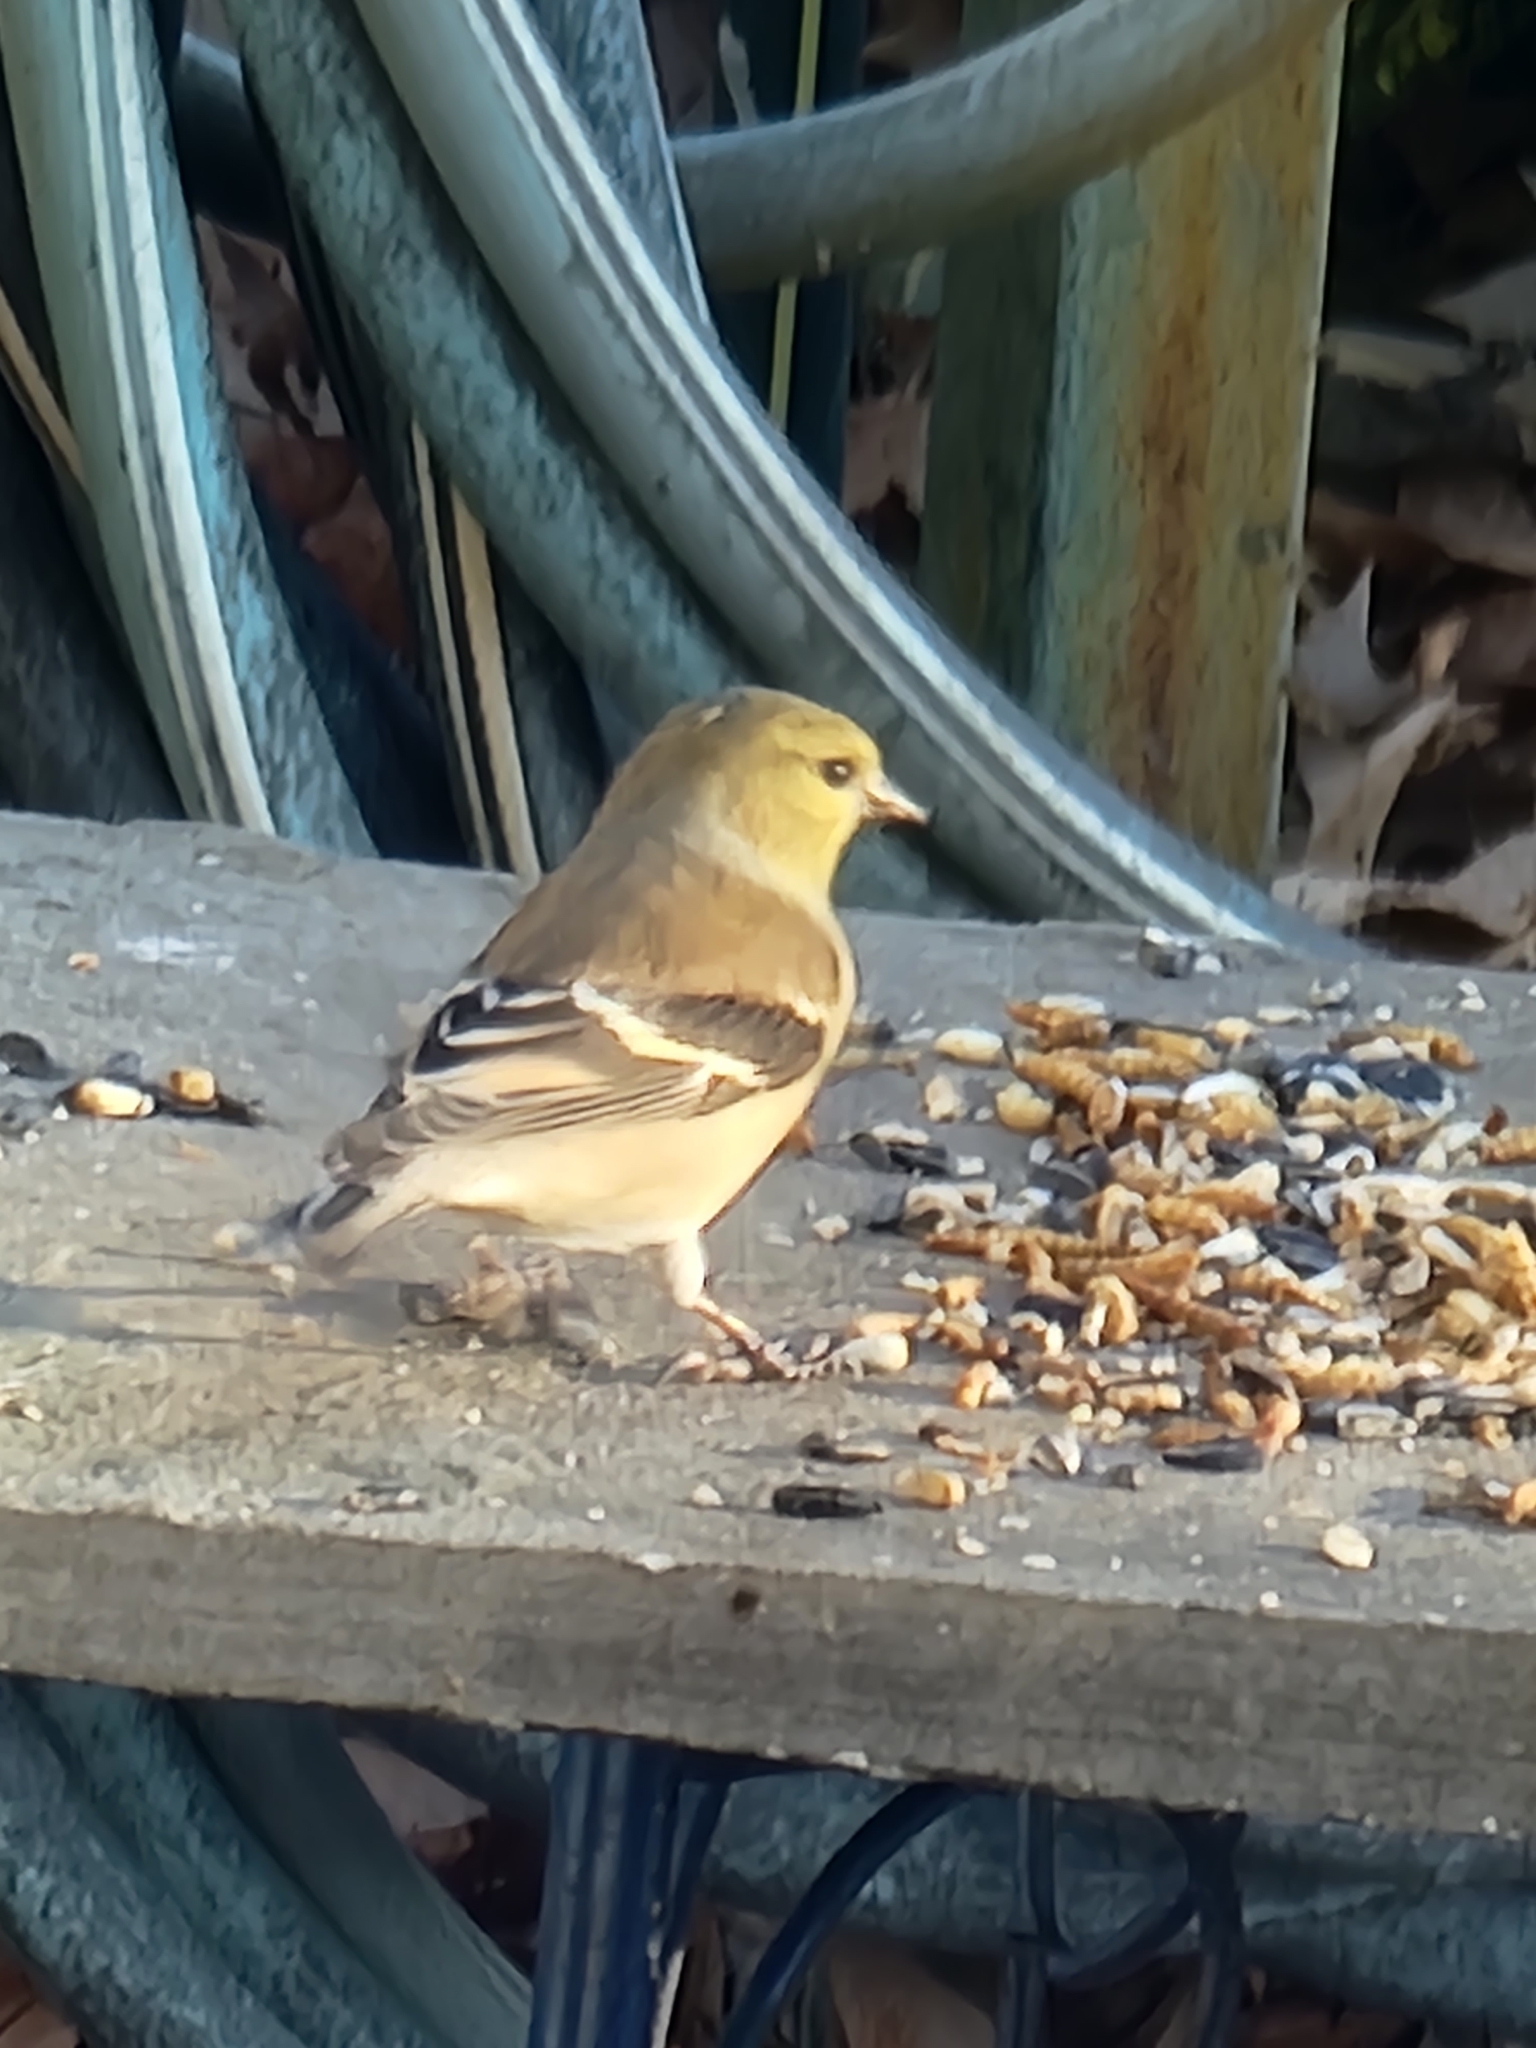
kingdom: Animalia
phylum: Chordata
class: Aves
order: Passeriformes
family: Fringillidae
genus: Spinus
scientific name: Spinus tristis
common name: American goldfinch
